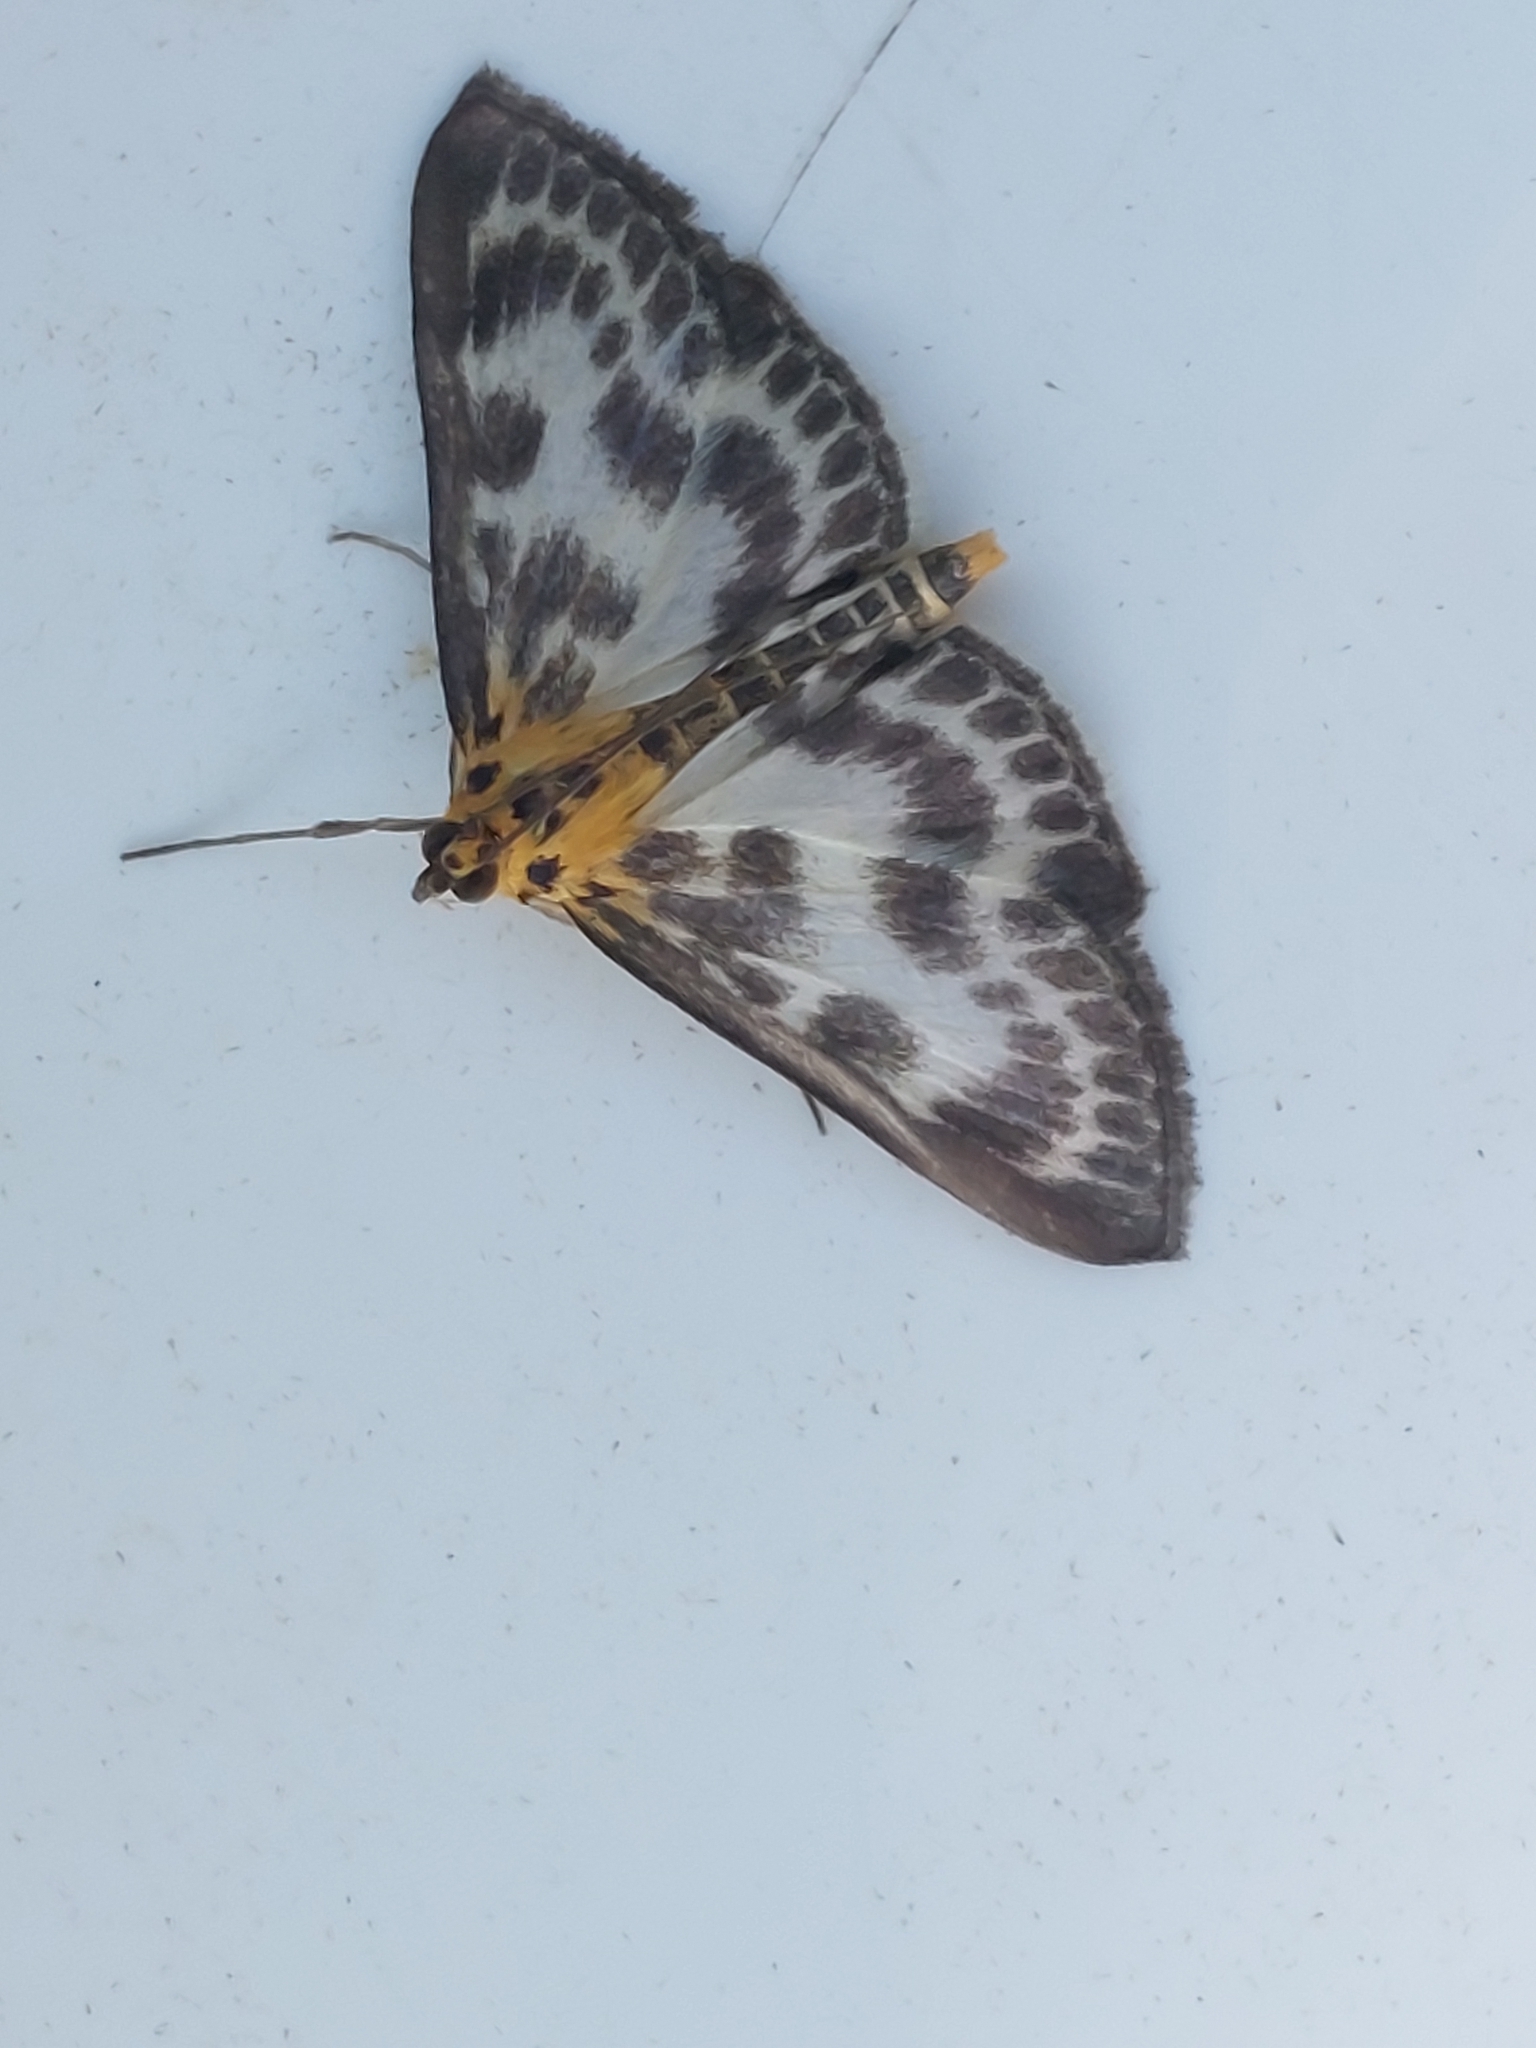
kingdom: Animalia
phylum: Arthropoda
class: Insecta
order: Lepidoptera
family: Crambidae
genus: Anania
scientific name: Anania hortulata
